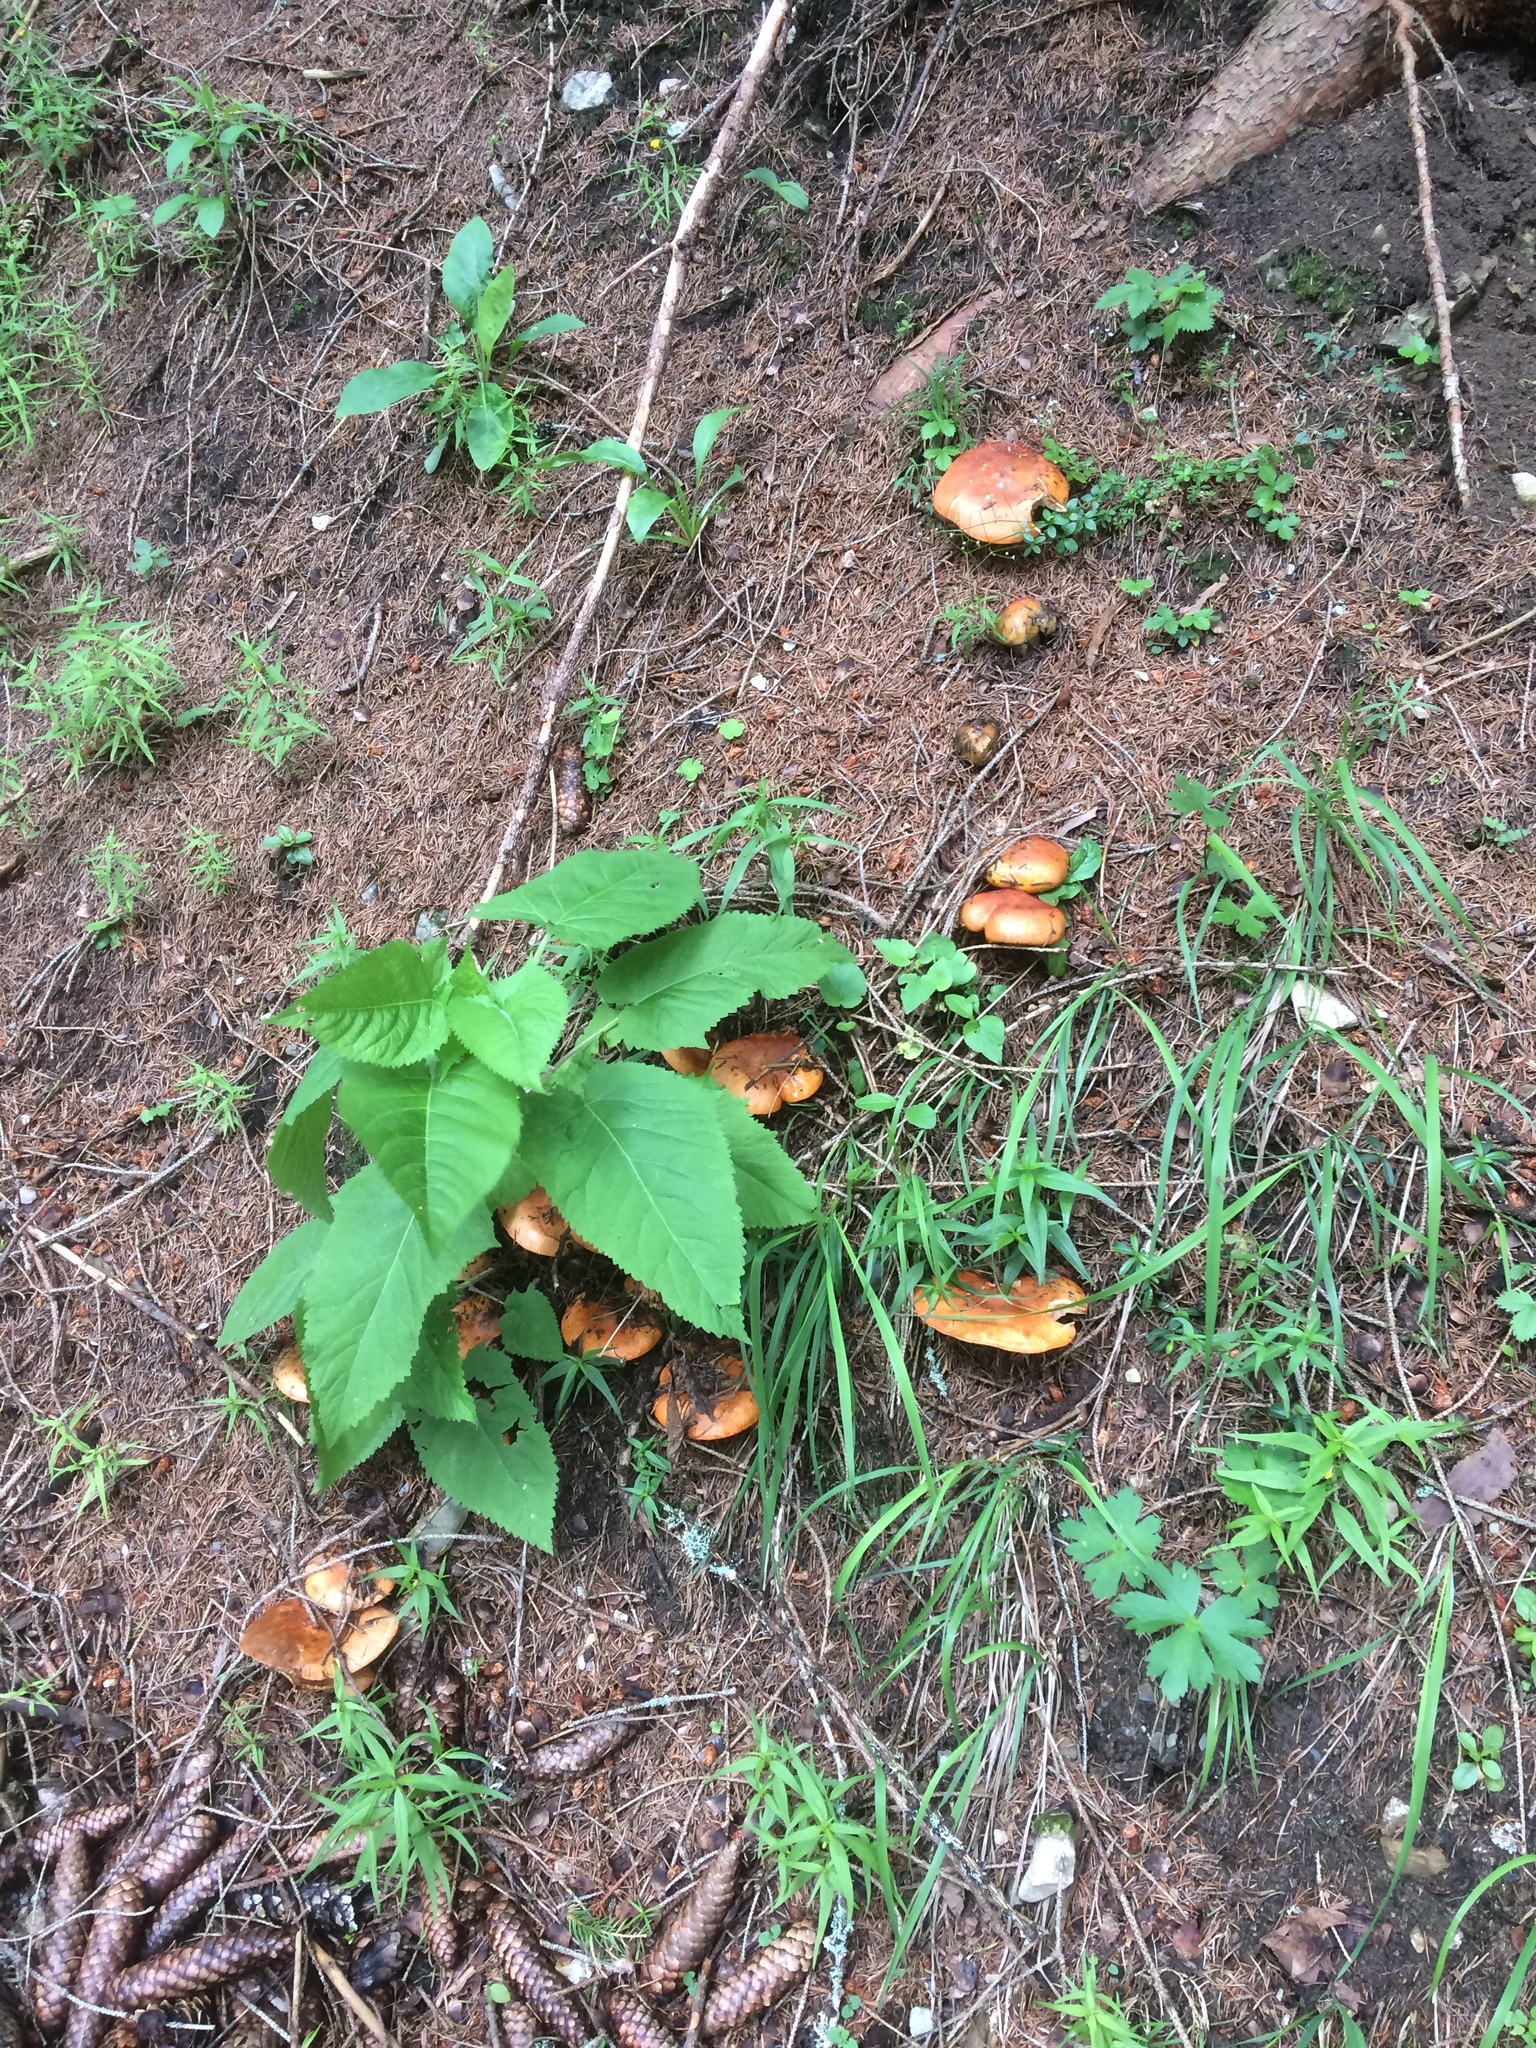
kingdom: Fungi
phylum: Basidiomycota
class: Agaricomycetes
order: Agaricales
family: Tricholomataceae
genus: Tricholoma
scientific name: Tricholoma aurantium
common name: Orange knight
